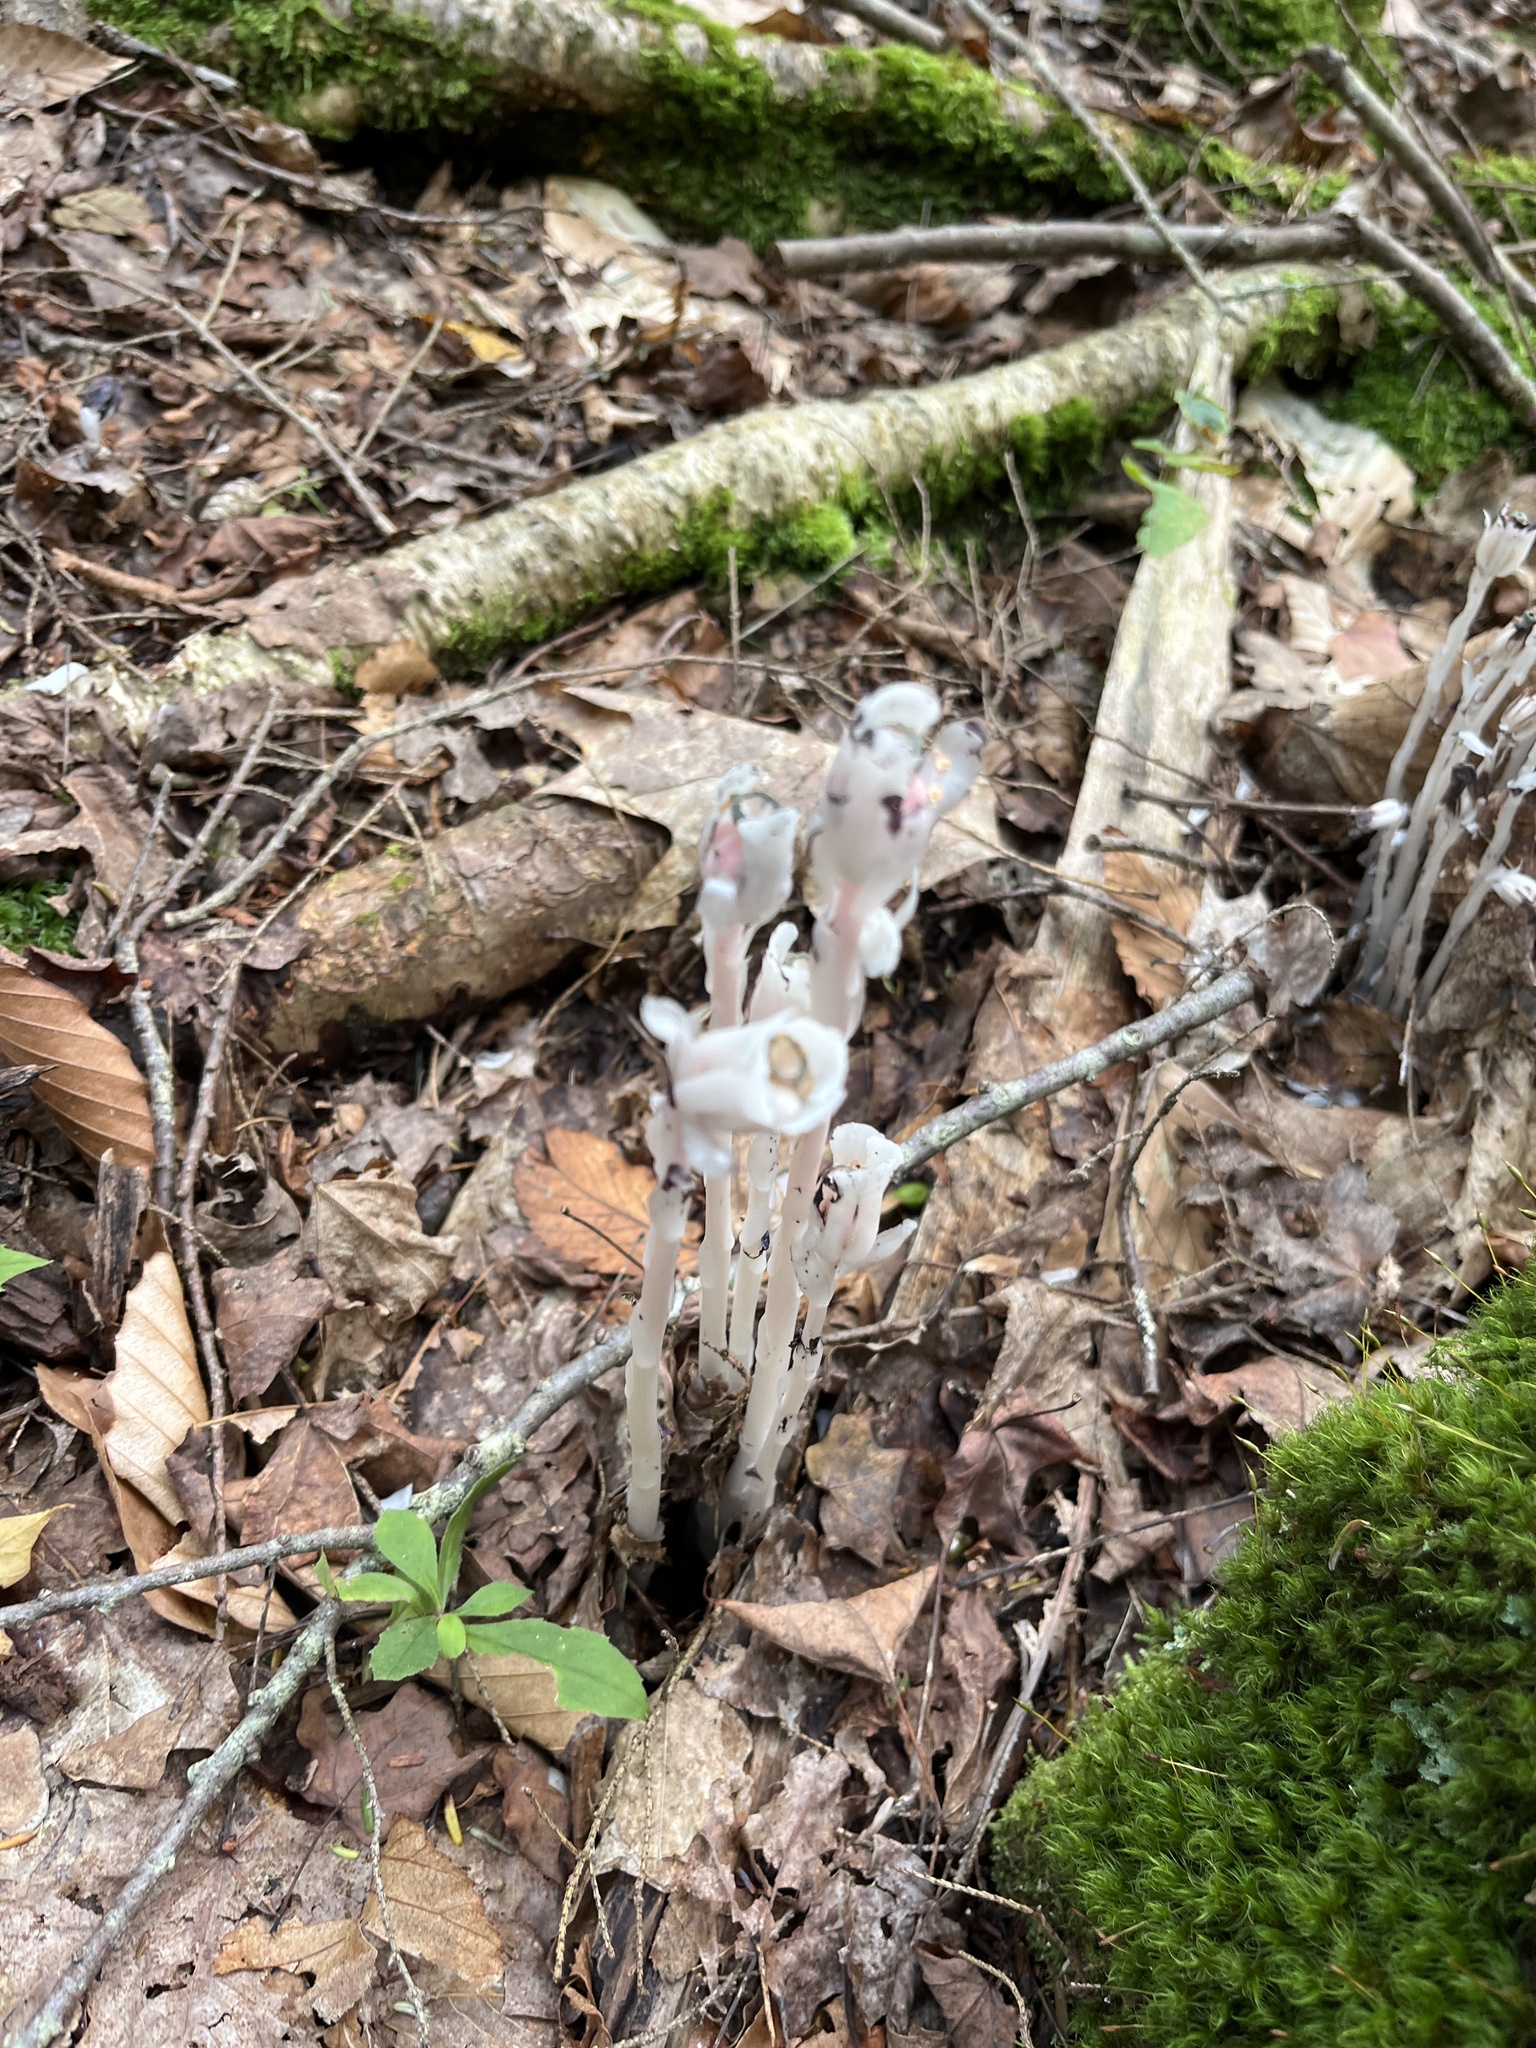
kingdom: Plantae
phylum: Tracheophyta
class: Magnoliopsida
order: Ericales
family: Ericaceae
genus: Monotropa
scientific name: Monotropa uniflora
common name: Convulsion root
